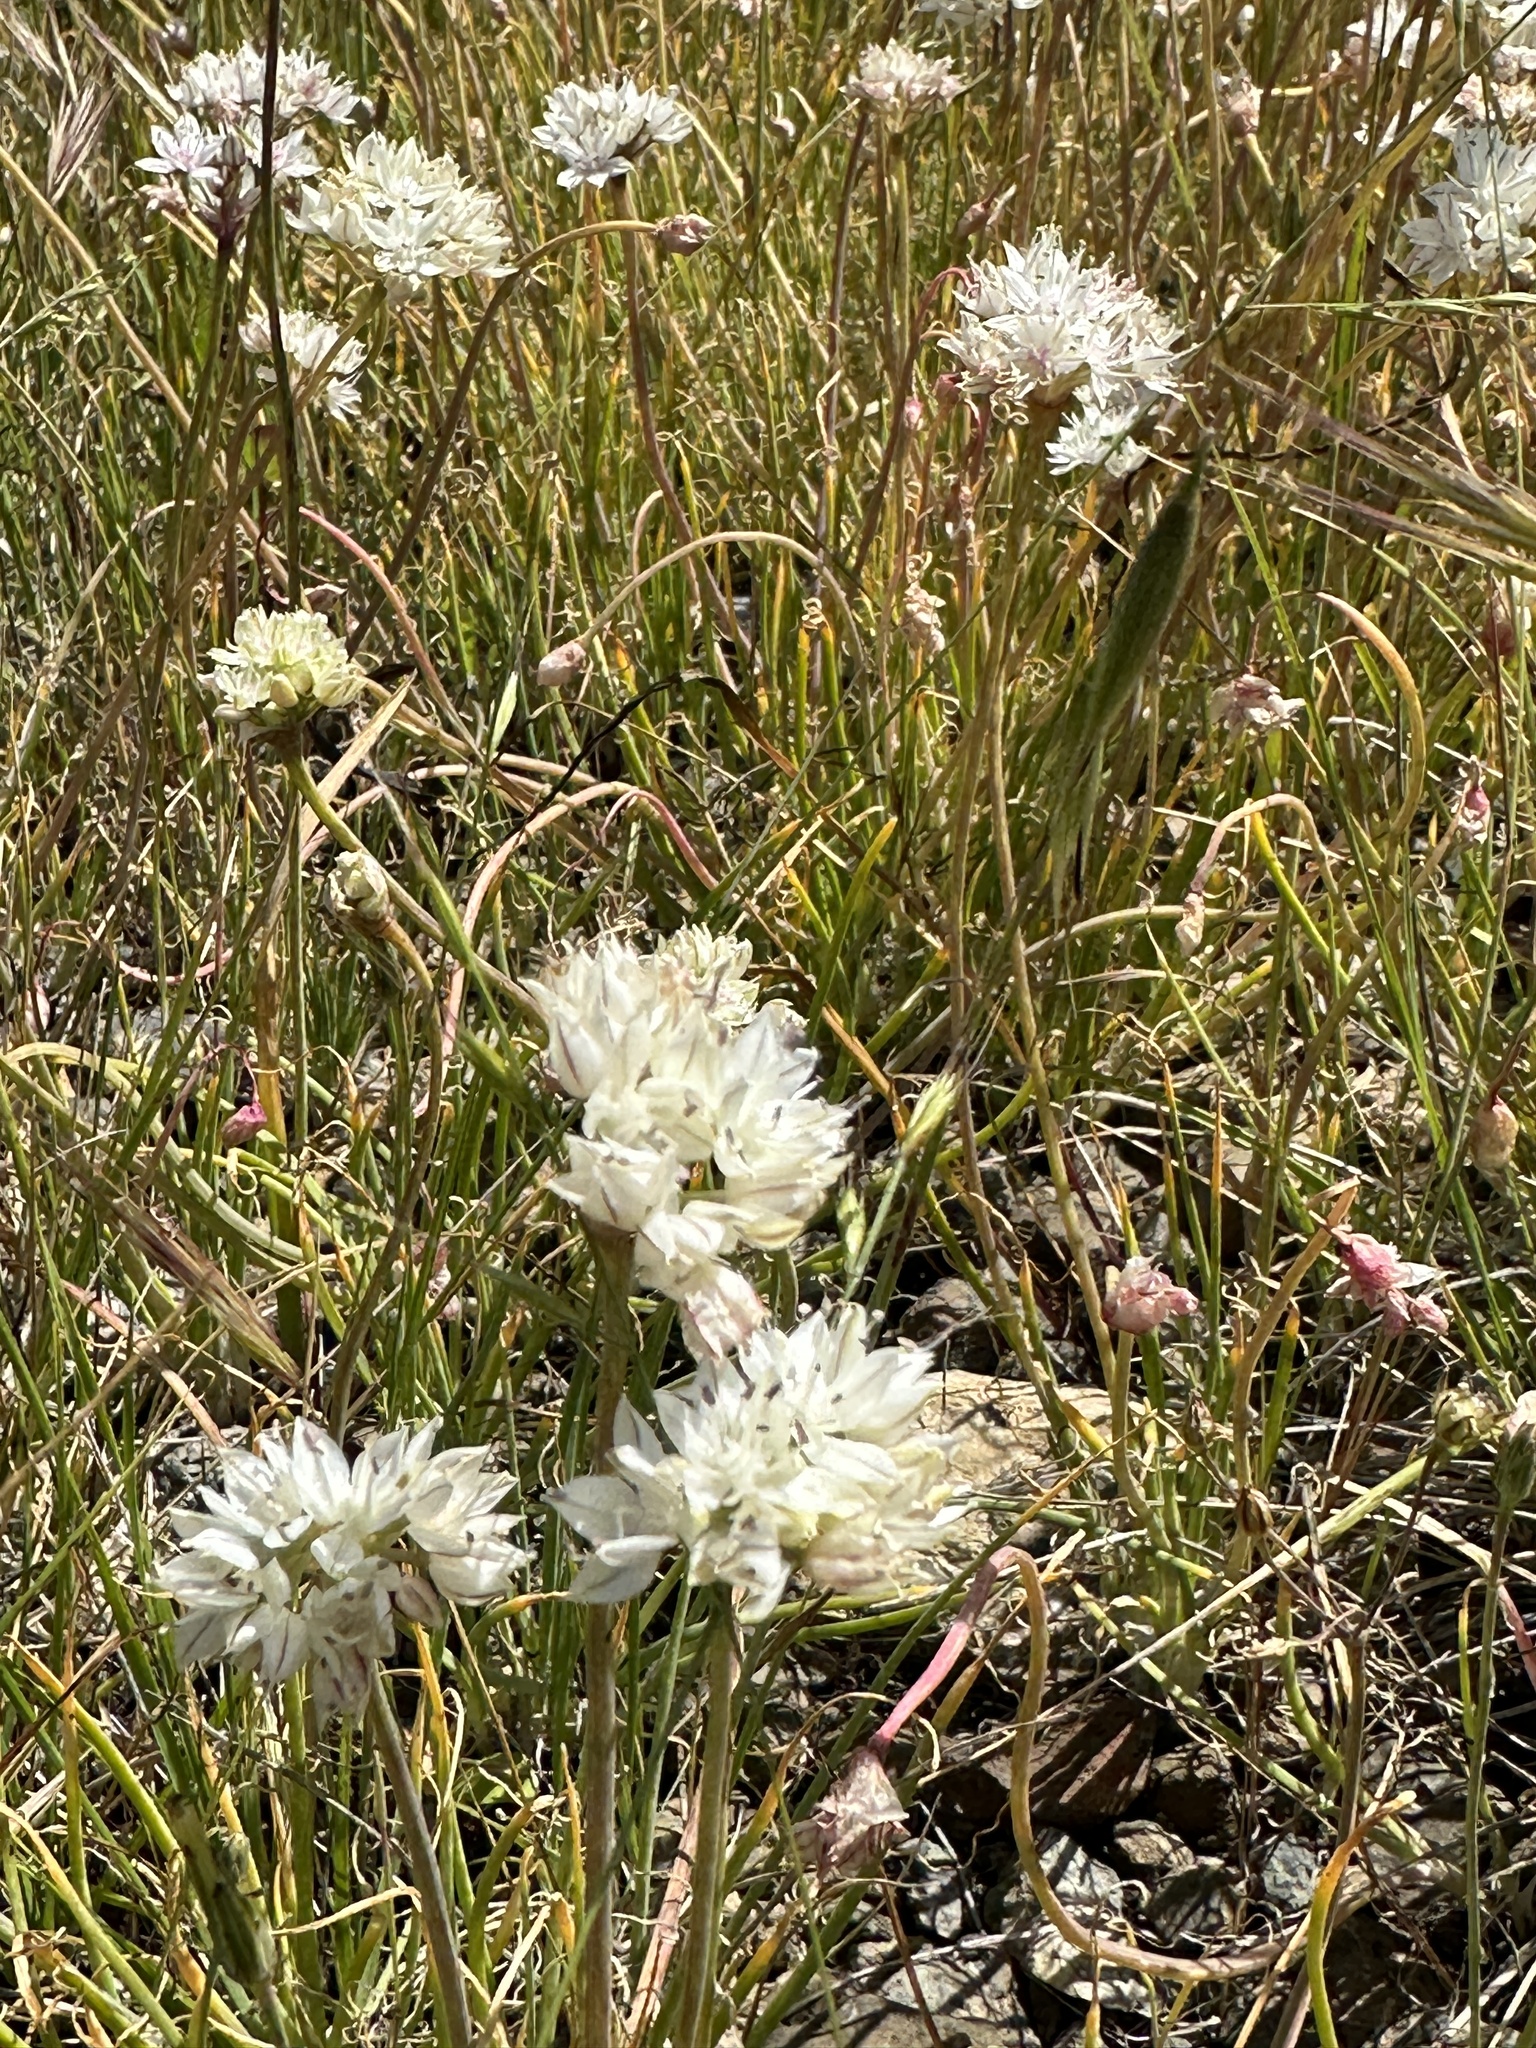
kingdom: Plantae
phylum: Tracheophyta
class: Liliopsida
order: Asparagales
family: Amaryllidaceae
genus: Allium
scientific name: Allium haematochiton
